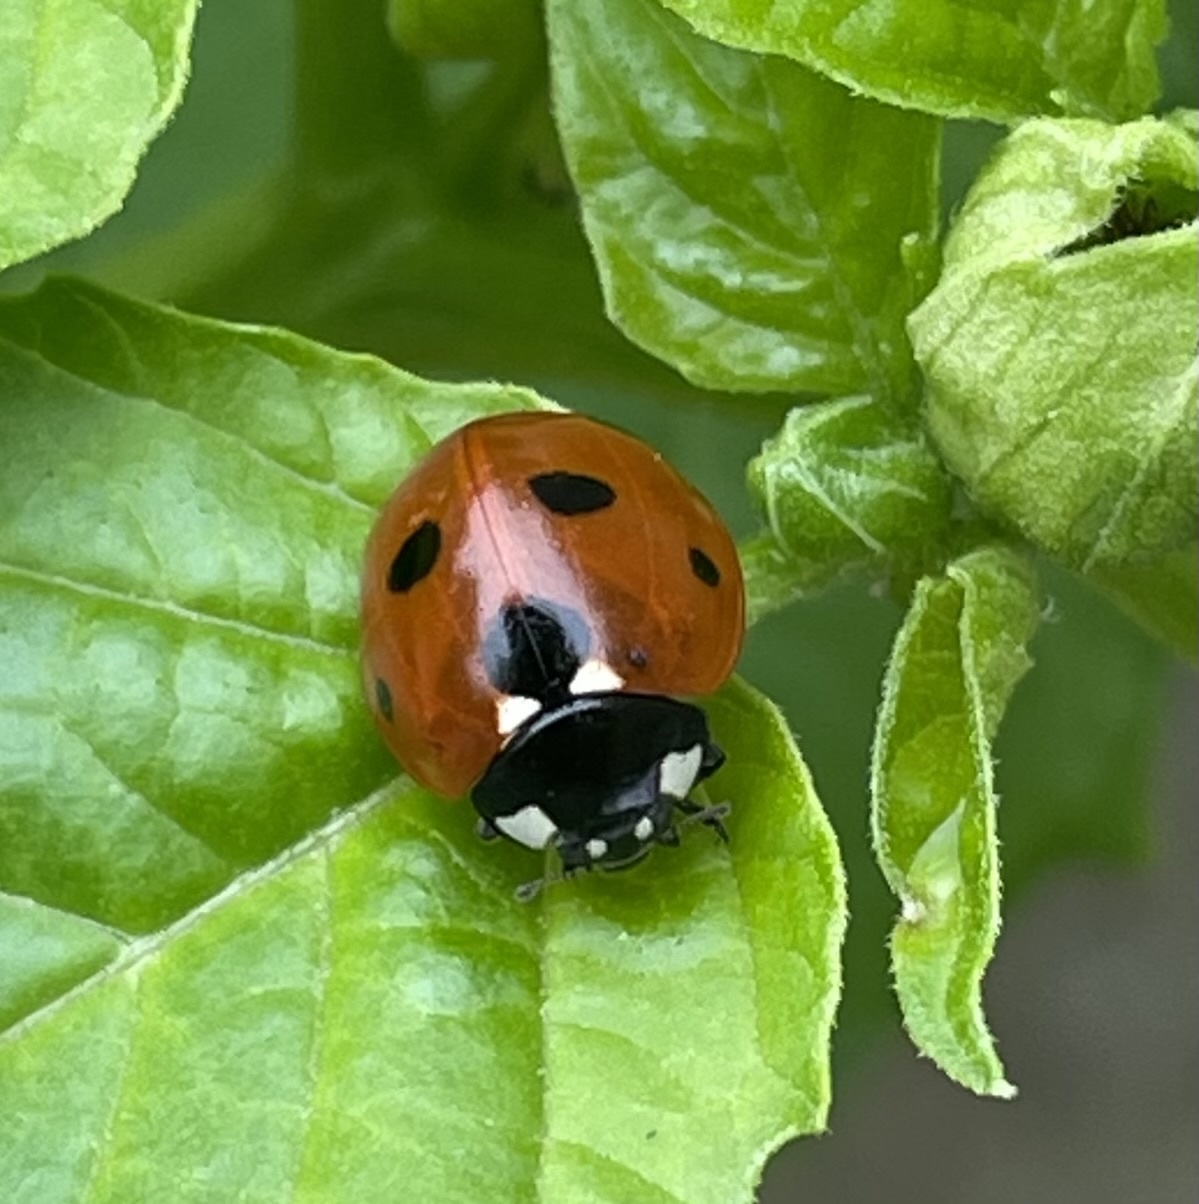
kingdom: Animalia
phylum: Arthropoda
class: Insecta
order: Coleoptera
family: Coccinellidae
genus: Coccinella
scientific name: Coccinella septempunctata
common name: Sevenspotted lady beetle
